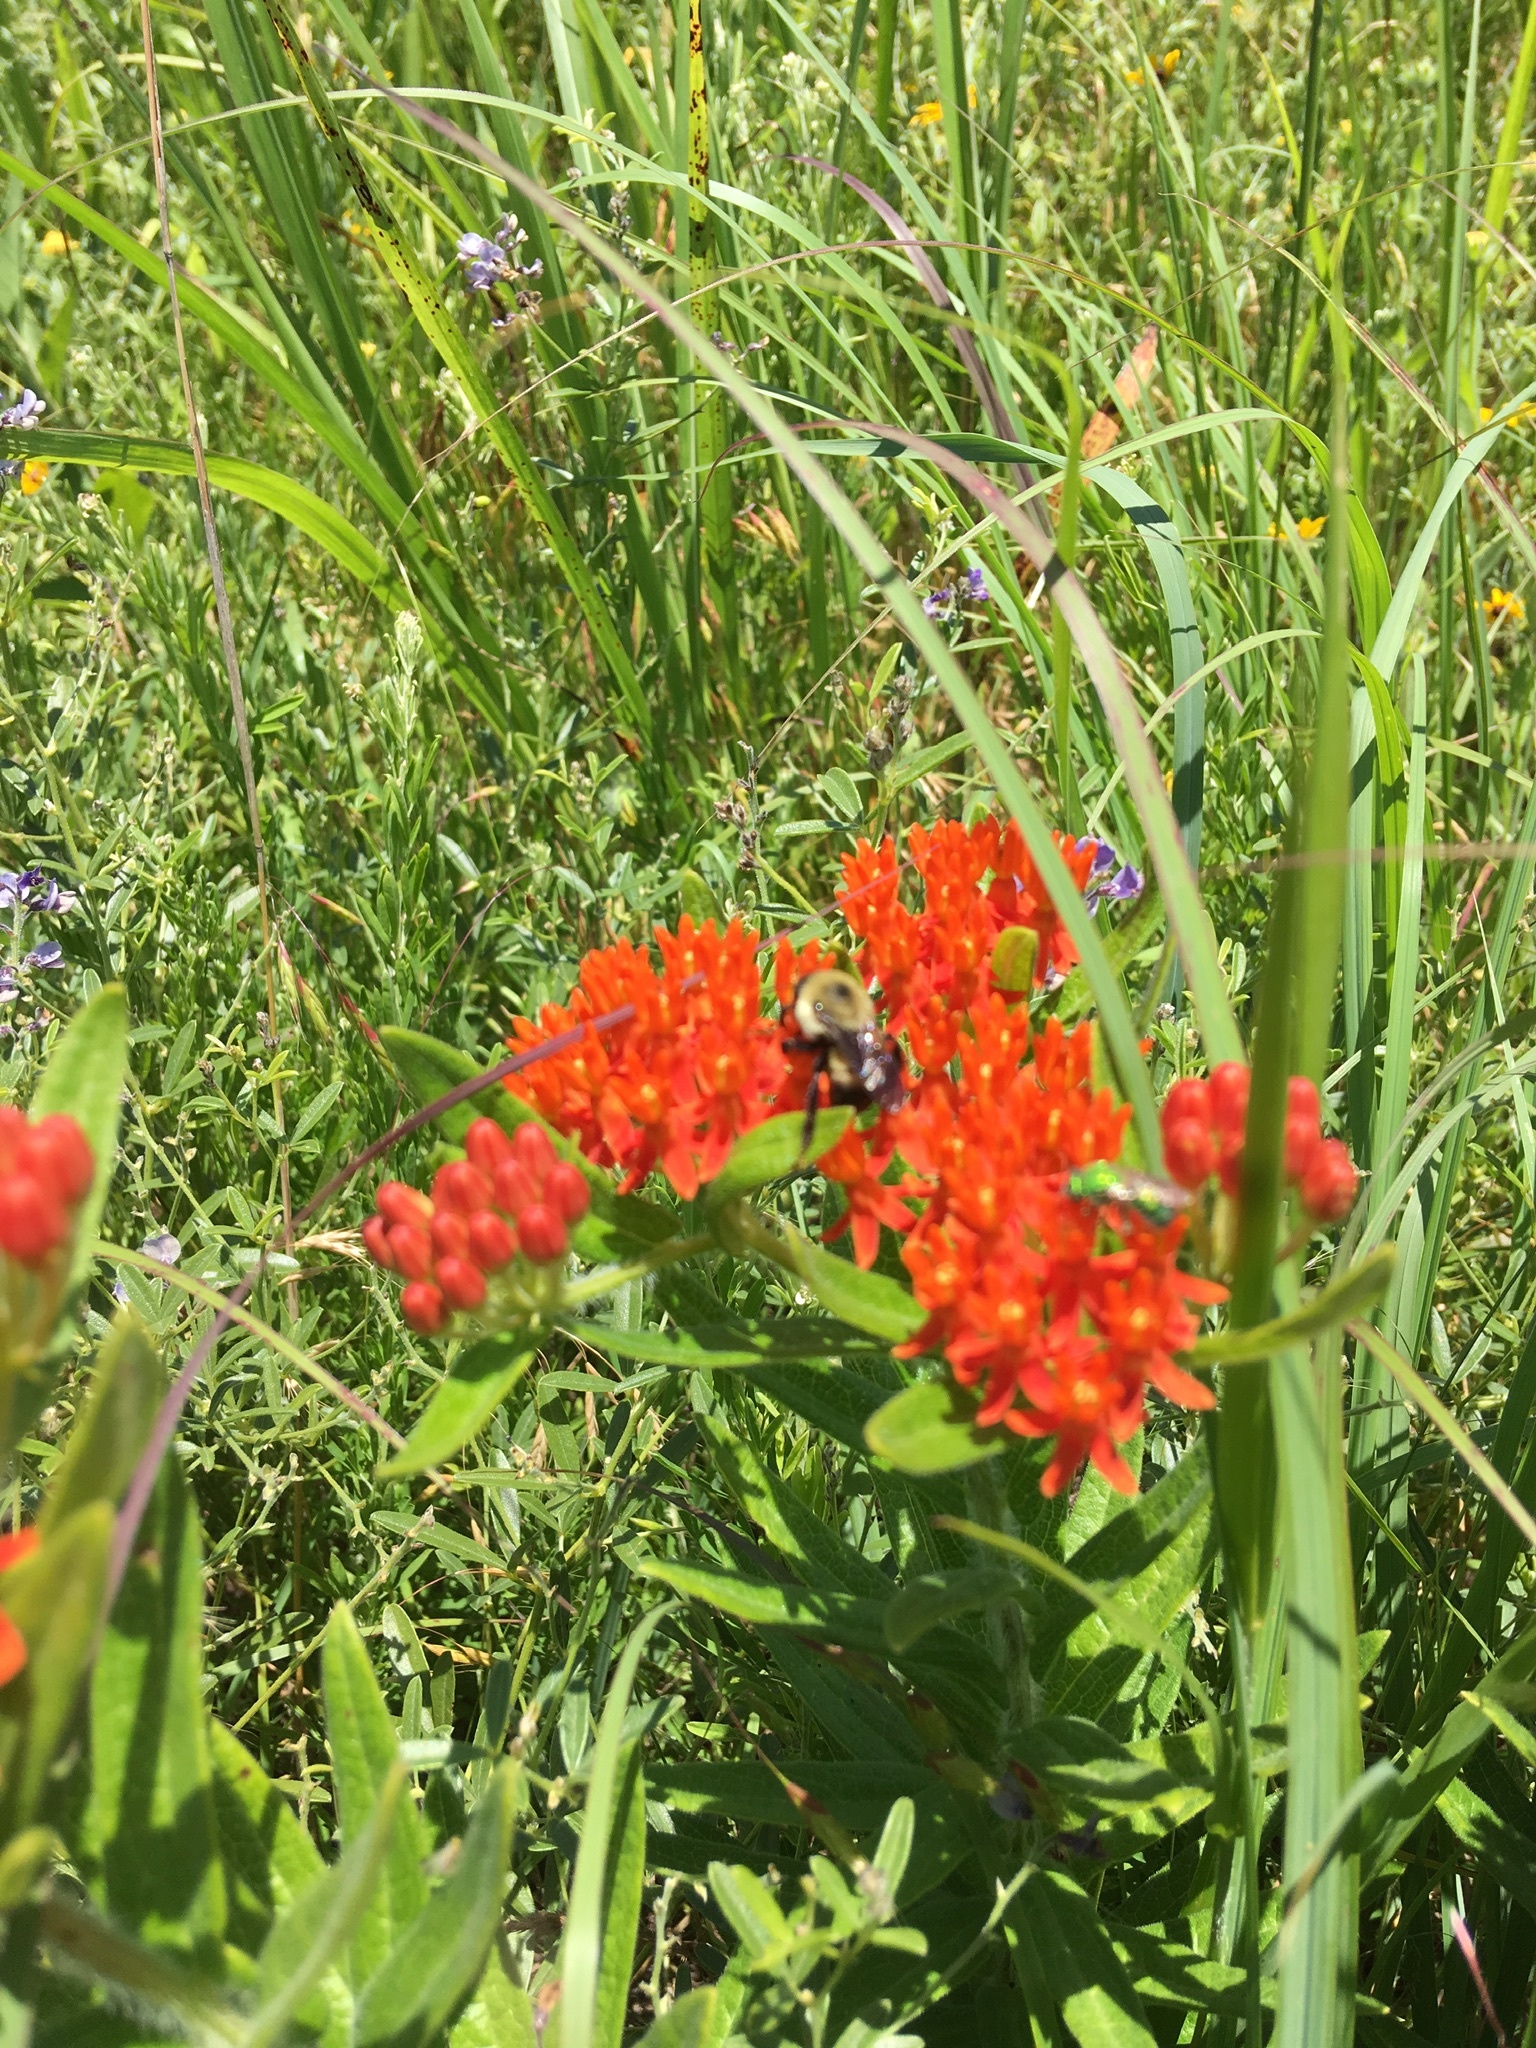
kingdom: Animalia
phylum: Arthropoda
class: Insecta
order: Hymenoptera
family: Apidae
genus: Bombus
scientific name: Bombus griseocollis
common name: Brown-belted bumble bee
